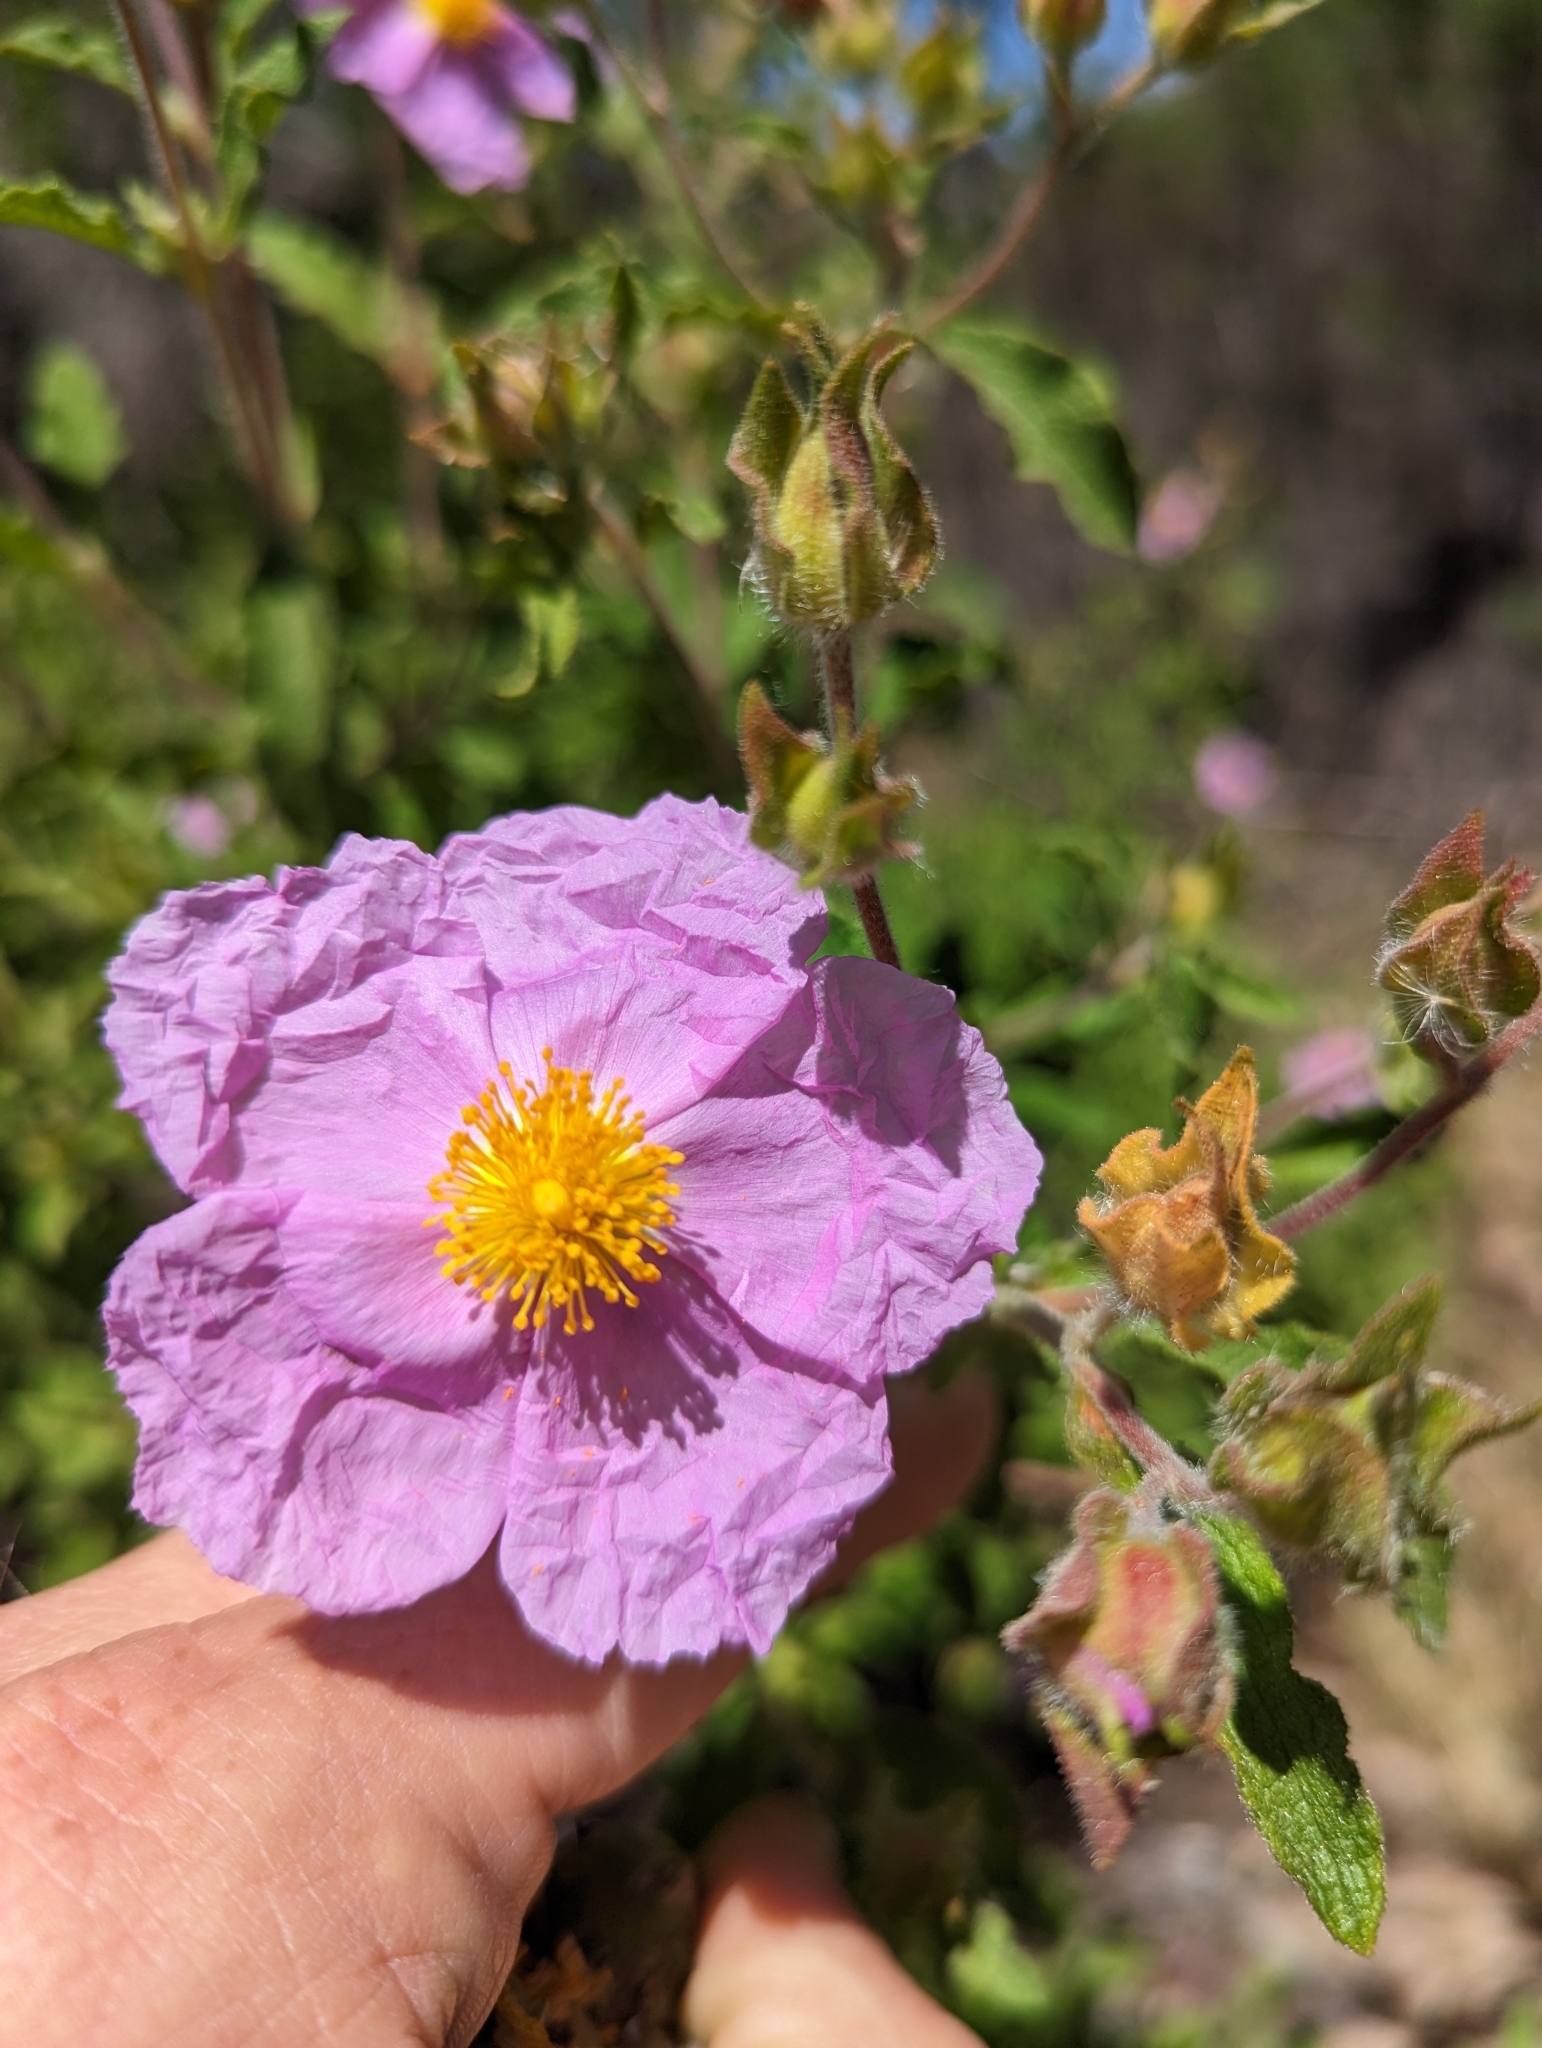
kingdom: Plantae
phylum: Tracheophyta
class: Magnoliopsida
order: Malvales
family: Cistaceae
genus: Cistus
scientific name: Cistus creticus
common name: Cretan rockrose
